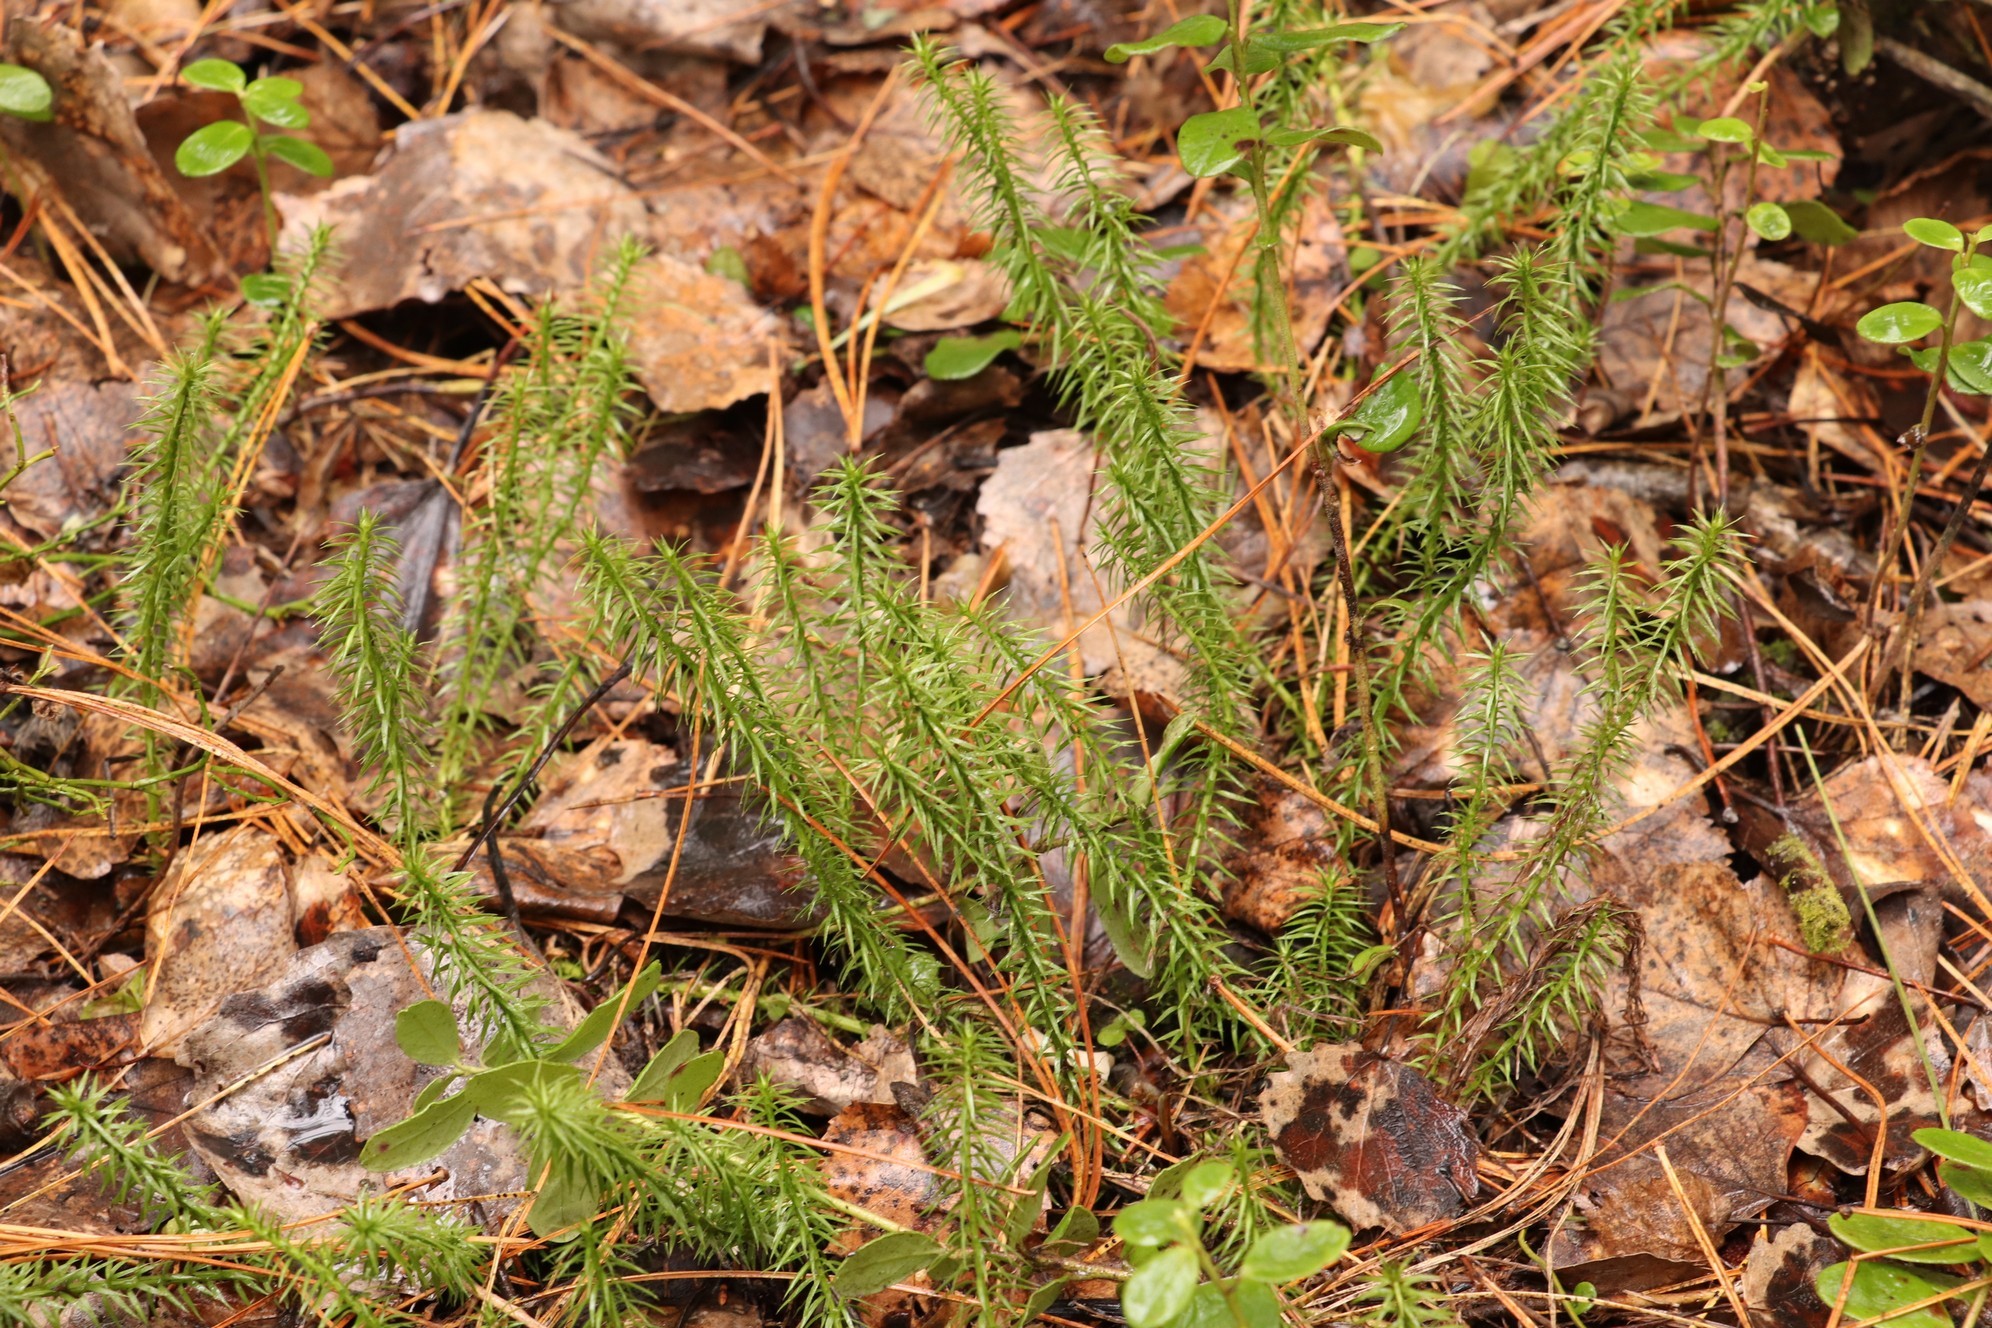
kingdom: Plantae
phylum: Tracheophyta
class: Lycopodiopsida
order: Lycopodiales
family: Lycopodiaceae
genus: Spinulum
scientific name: Spinulum annotinum
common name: Interrupted club-moss
